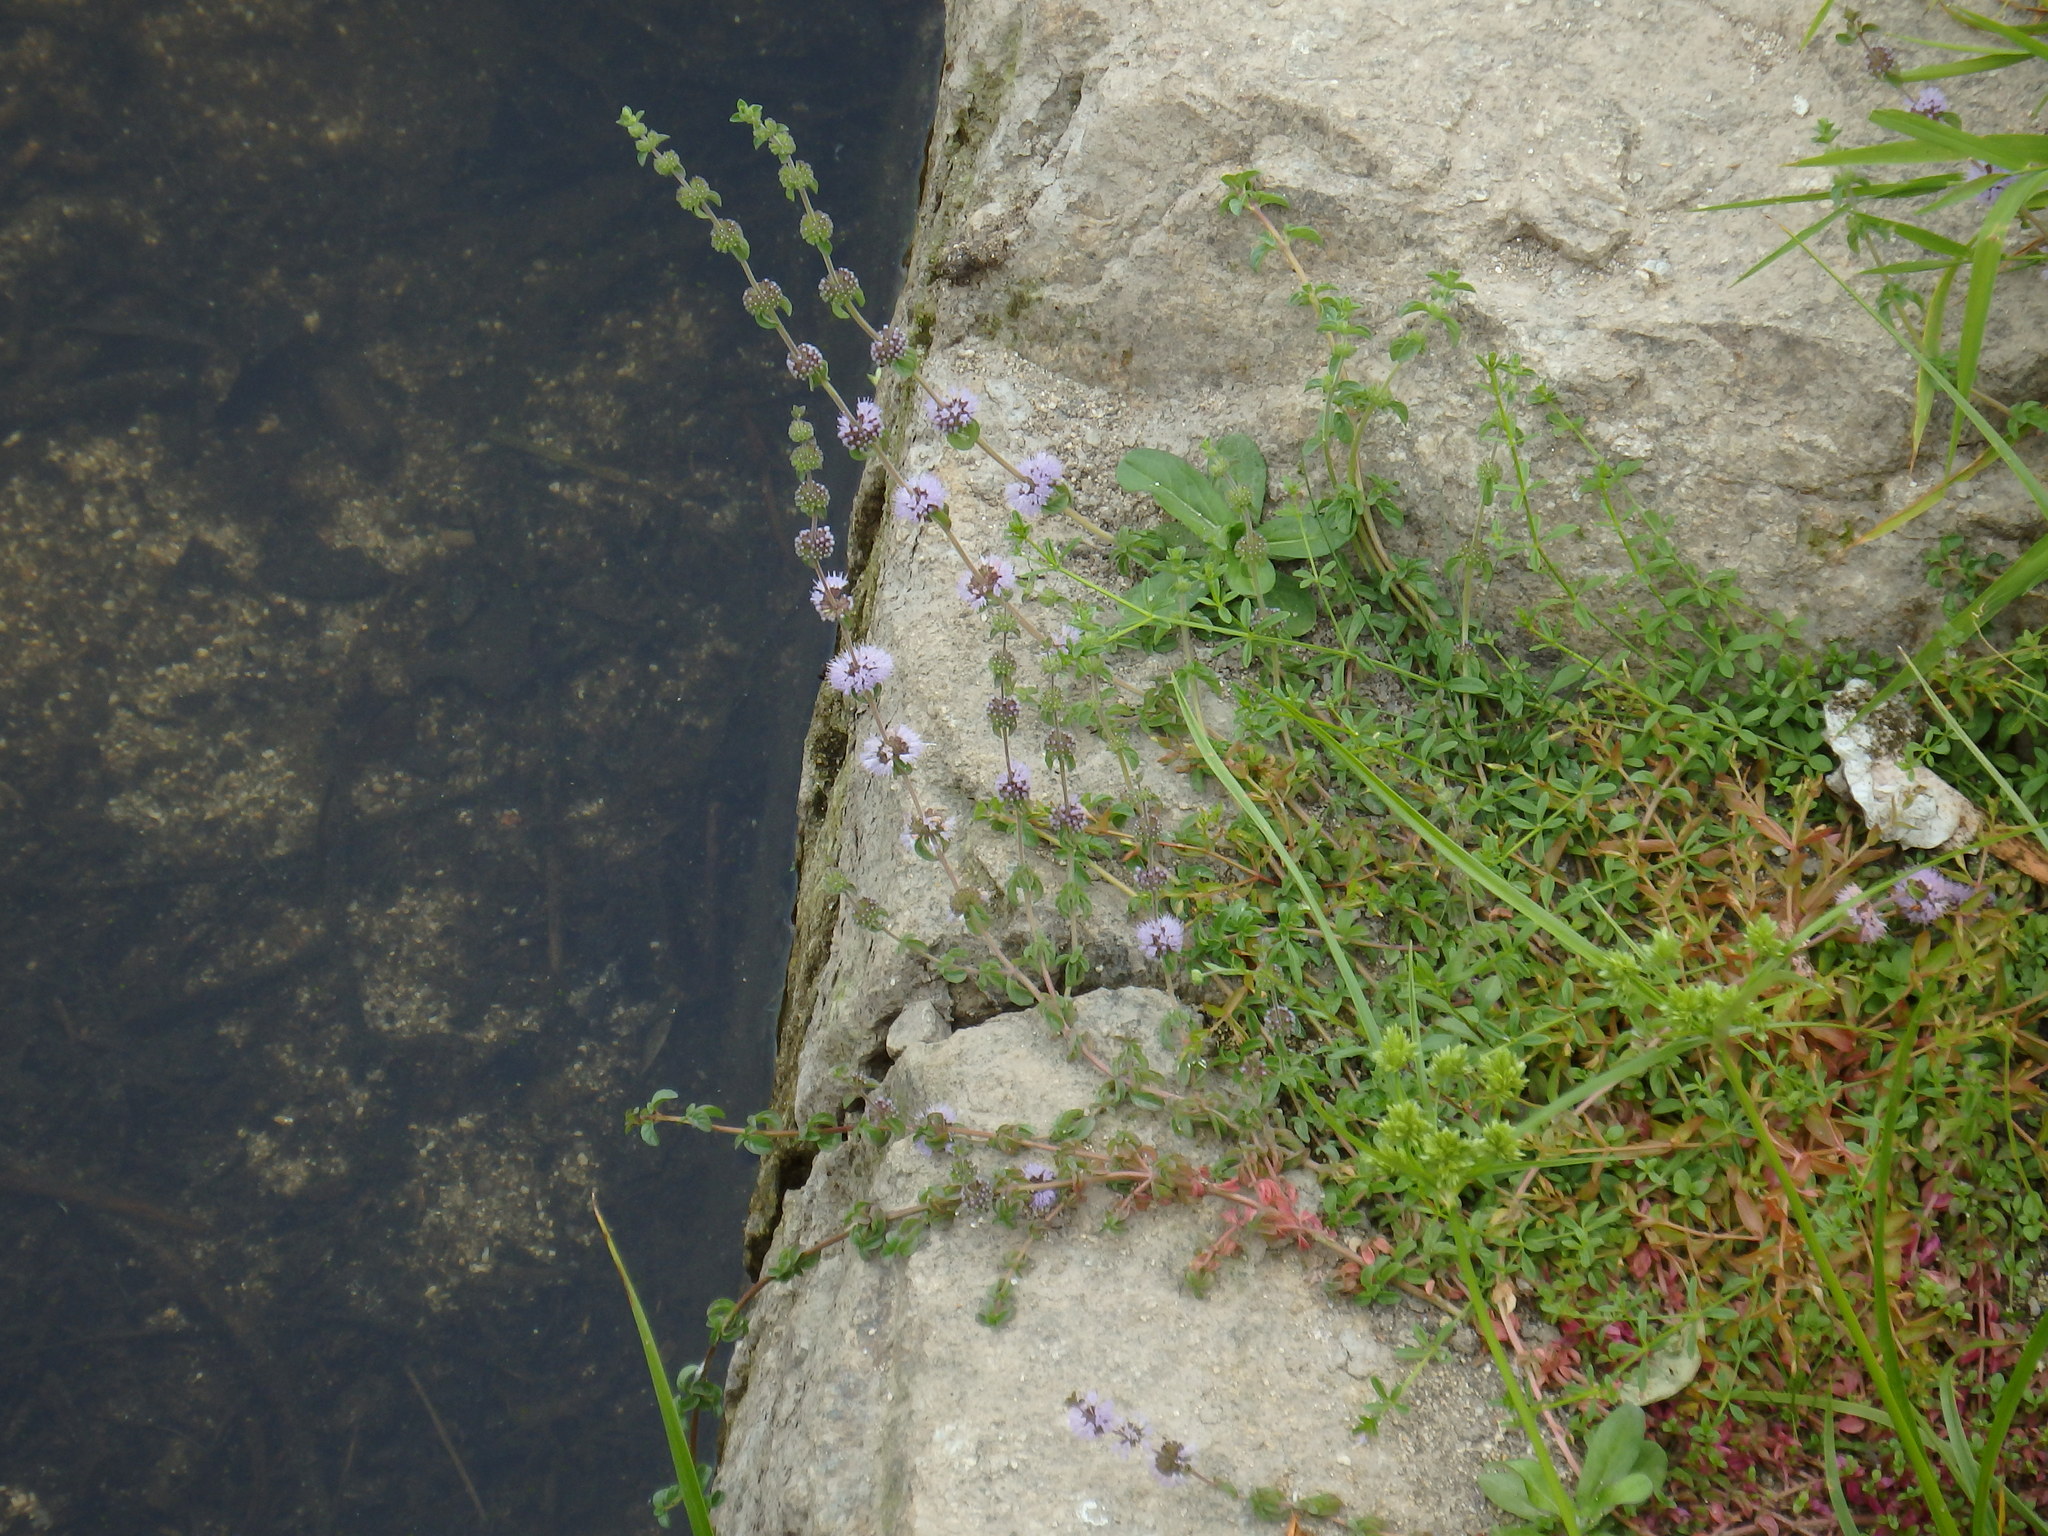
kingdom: Plantae
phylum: Tracheophyta
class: Magnoliopsida
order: Lamiales
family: Lamiaceae
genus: Mentha
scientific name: Mentha pulegium
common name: Pennyroyal
